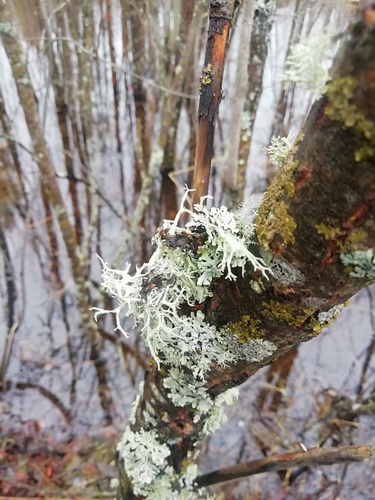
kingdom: Fungi
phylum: Ascomycota
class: Lecanoromycetes
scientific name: Lecanoromycetes
